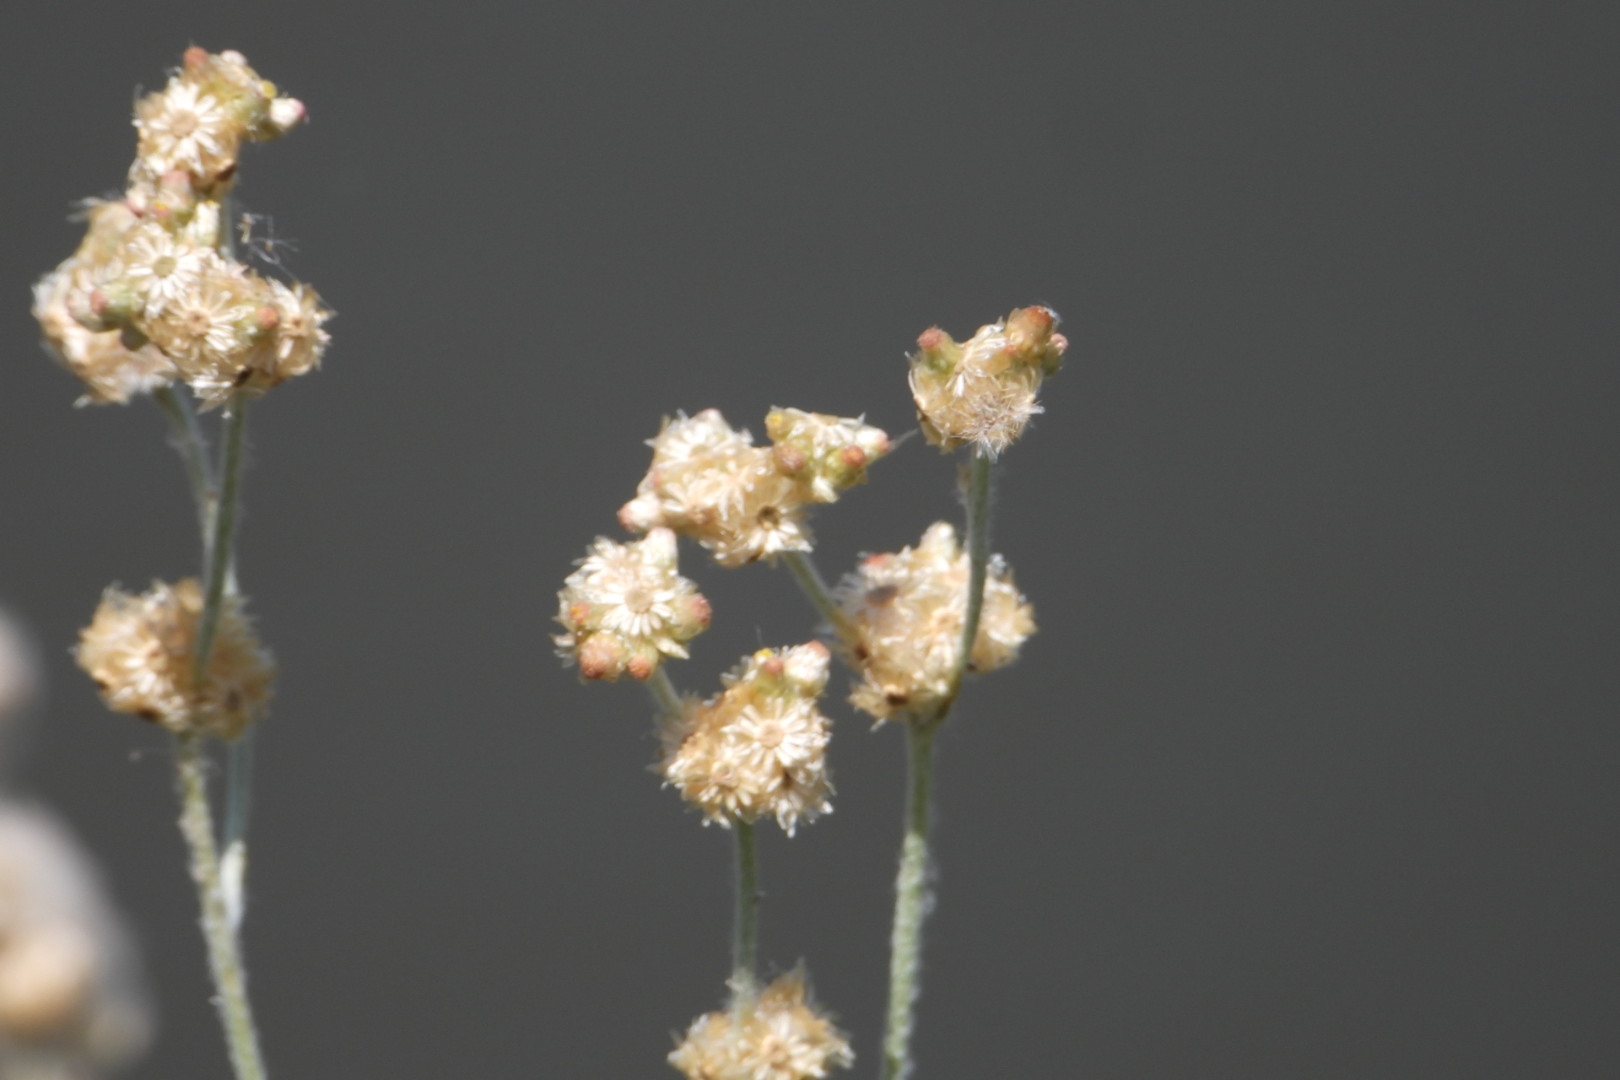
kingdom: Plantae
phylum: Tracheophyta
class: Magnoliopsida
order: Asterales
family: Asteraceae
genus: Helichrysum
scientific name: Helichrysum luteoalbum
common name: Daisy
